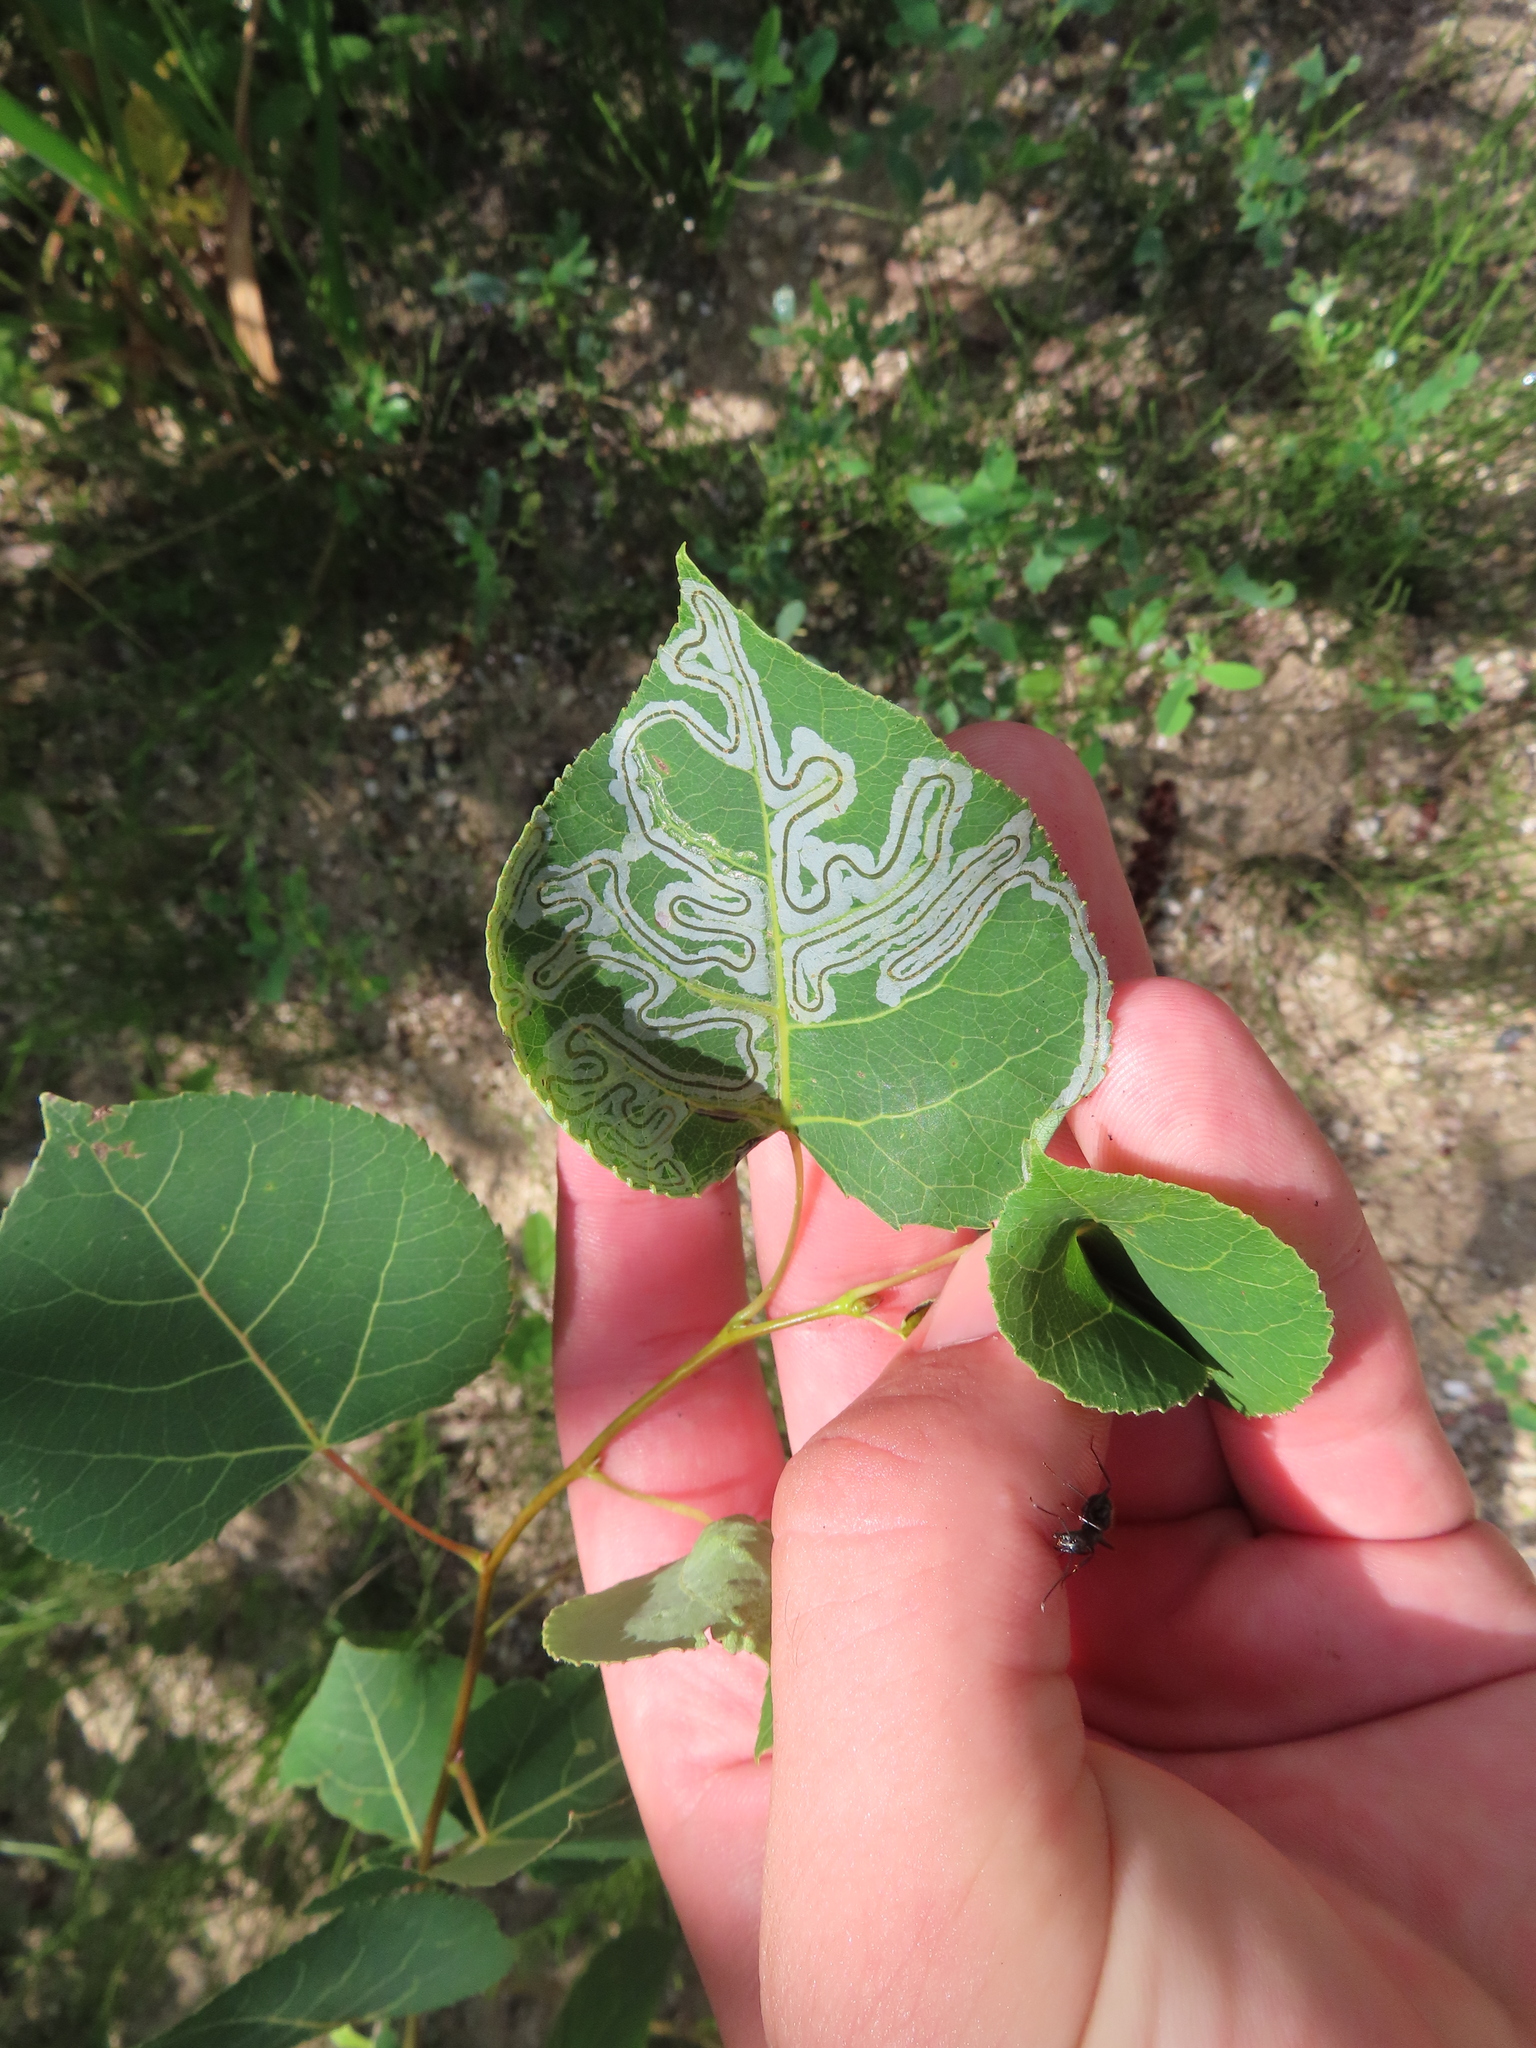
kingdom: Animalia
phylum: Arthropoda
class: Insecta
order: Lepidoptera
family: Gracillariidae
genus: Phyllocnistis
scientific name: Phyllocnistis populiella
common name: Aspen serpentine leafminer moth
